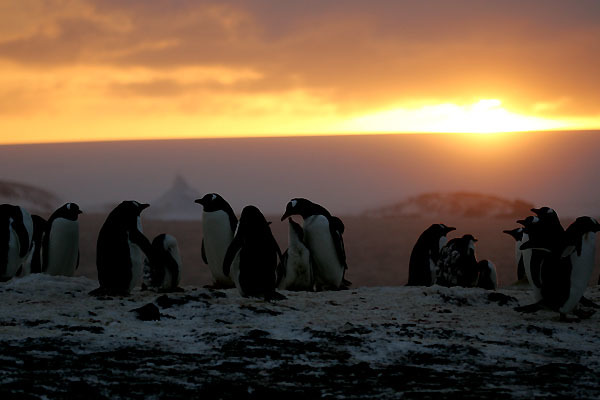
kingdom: Animalia
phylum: Chordata
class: Aves
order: Sphenisciformes
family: Spheniscidae
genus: Pygoscelis
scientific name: Pygoscelis papua
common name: Gentoo penguin
